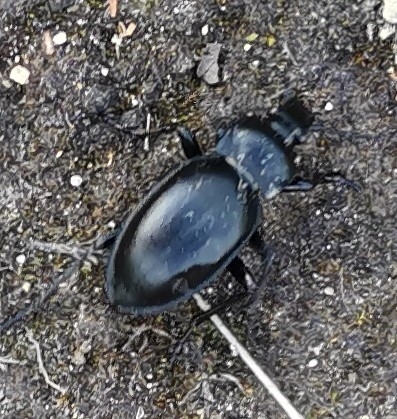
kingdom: Animalia
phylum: Arthropoda
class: Insecta
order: Coleoptera
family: Carabidae
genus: Carabus
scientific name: Carabus glabratus
